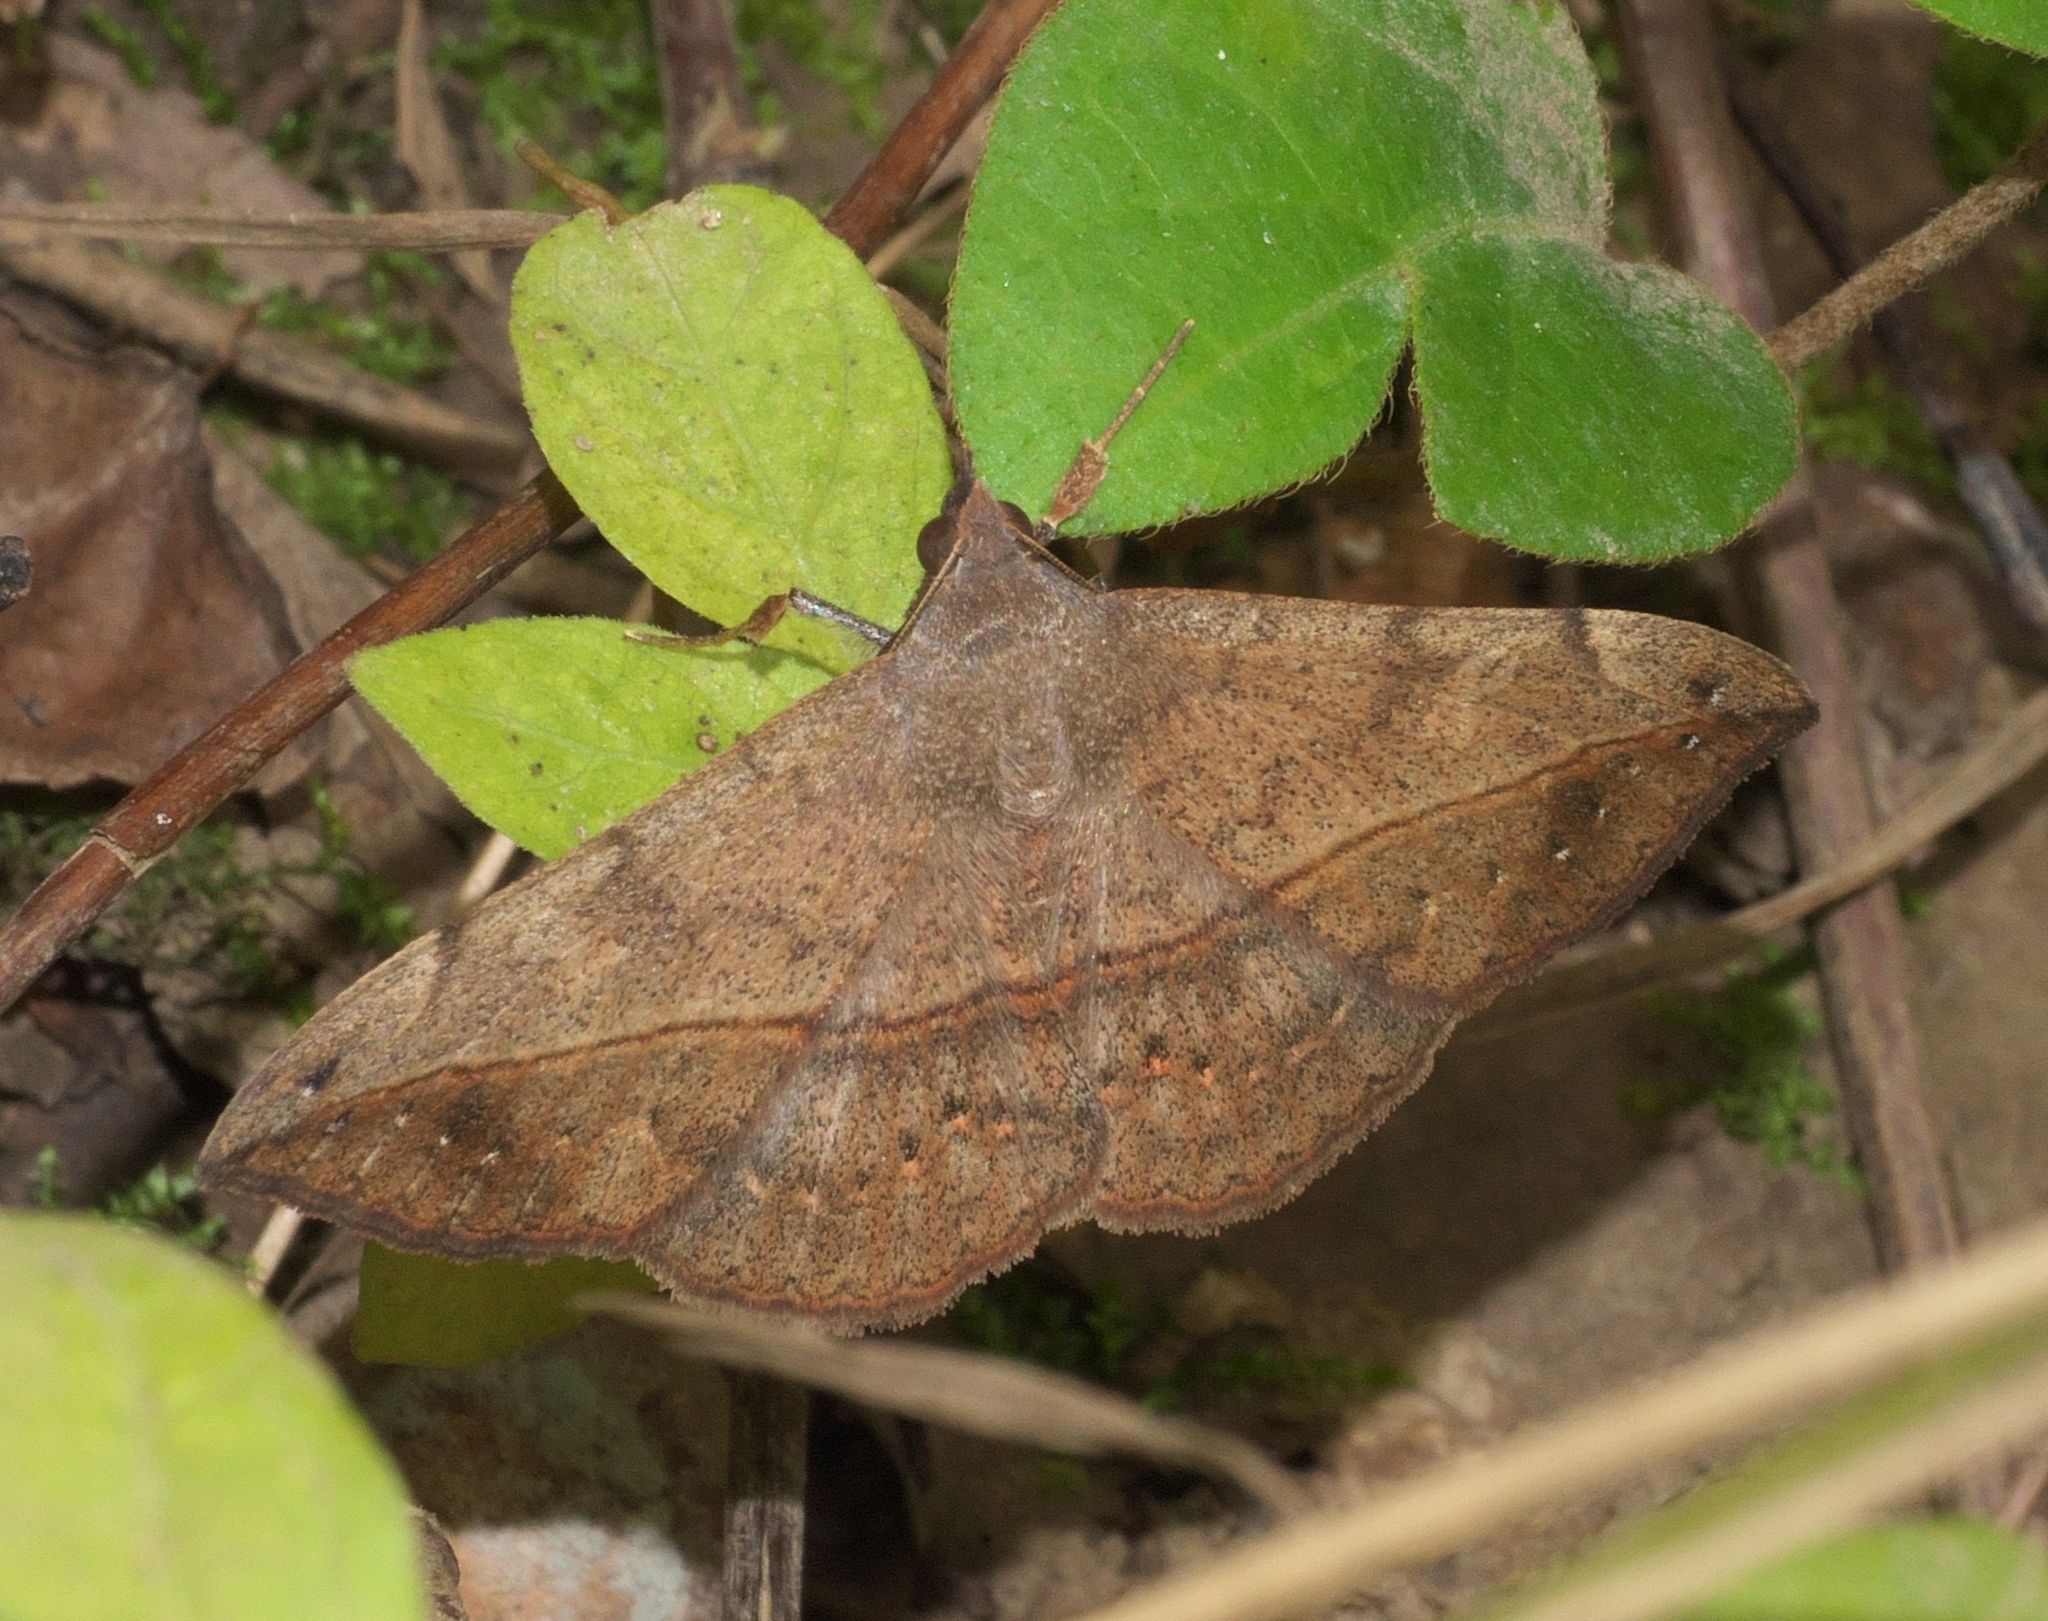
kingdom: Animalia
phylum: Arthropoda
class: Insecta
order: Lepidoptera
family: Erebidae
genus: Anticarsia
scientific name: Anticarsia gemmatalis
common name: Cutworm moth
